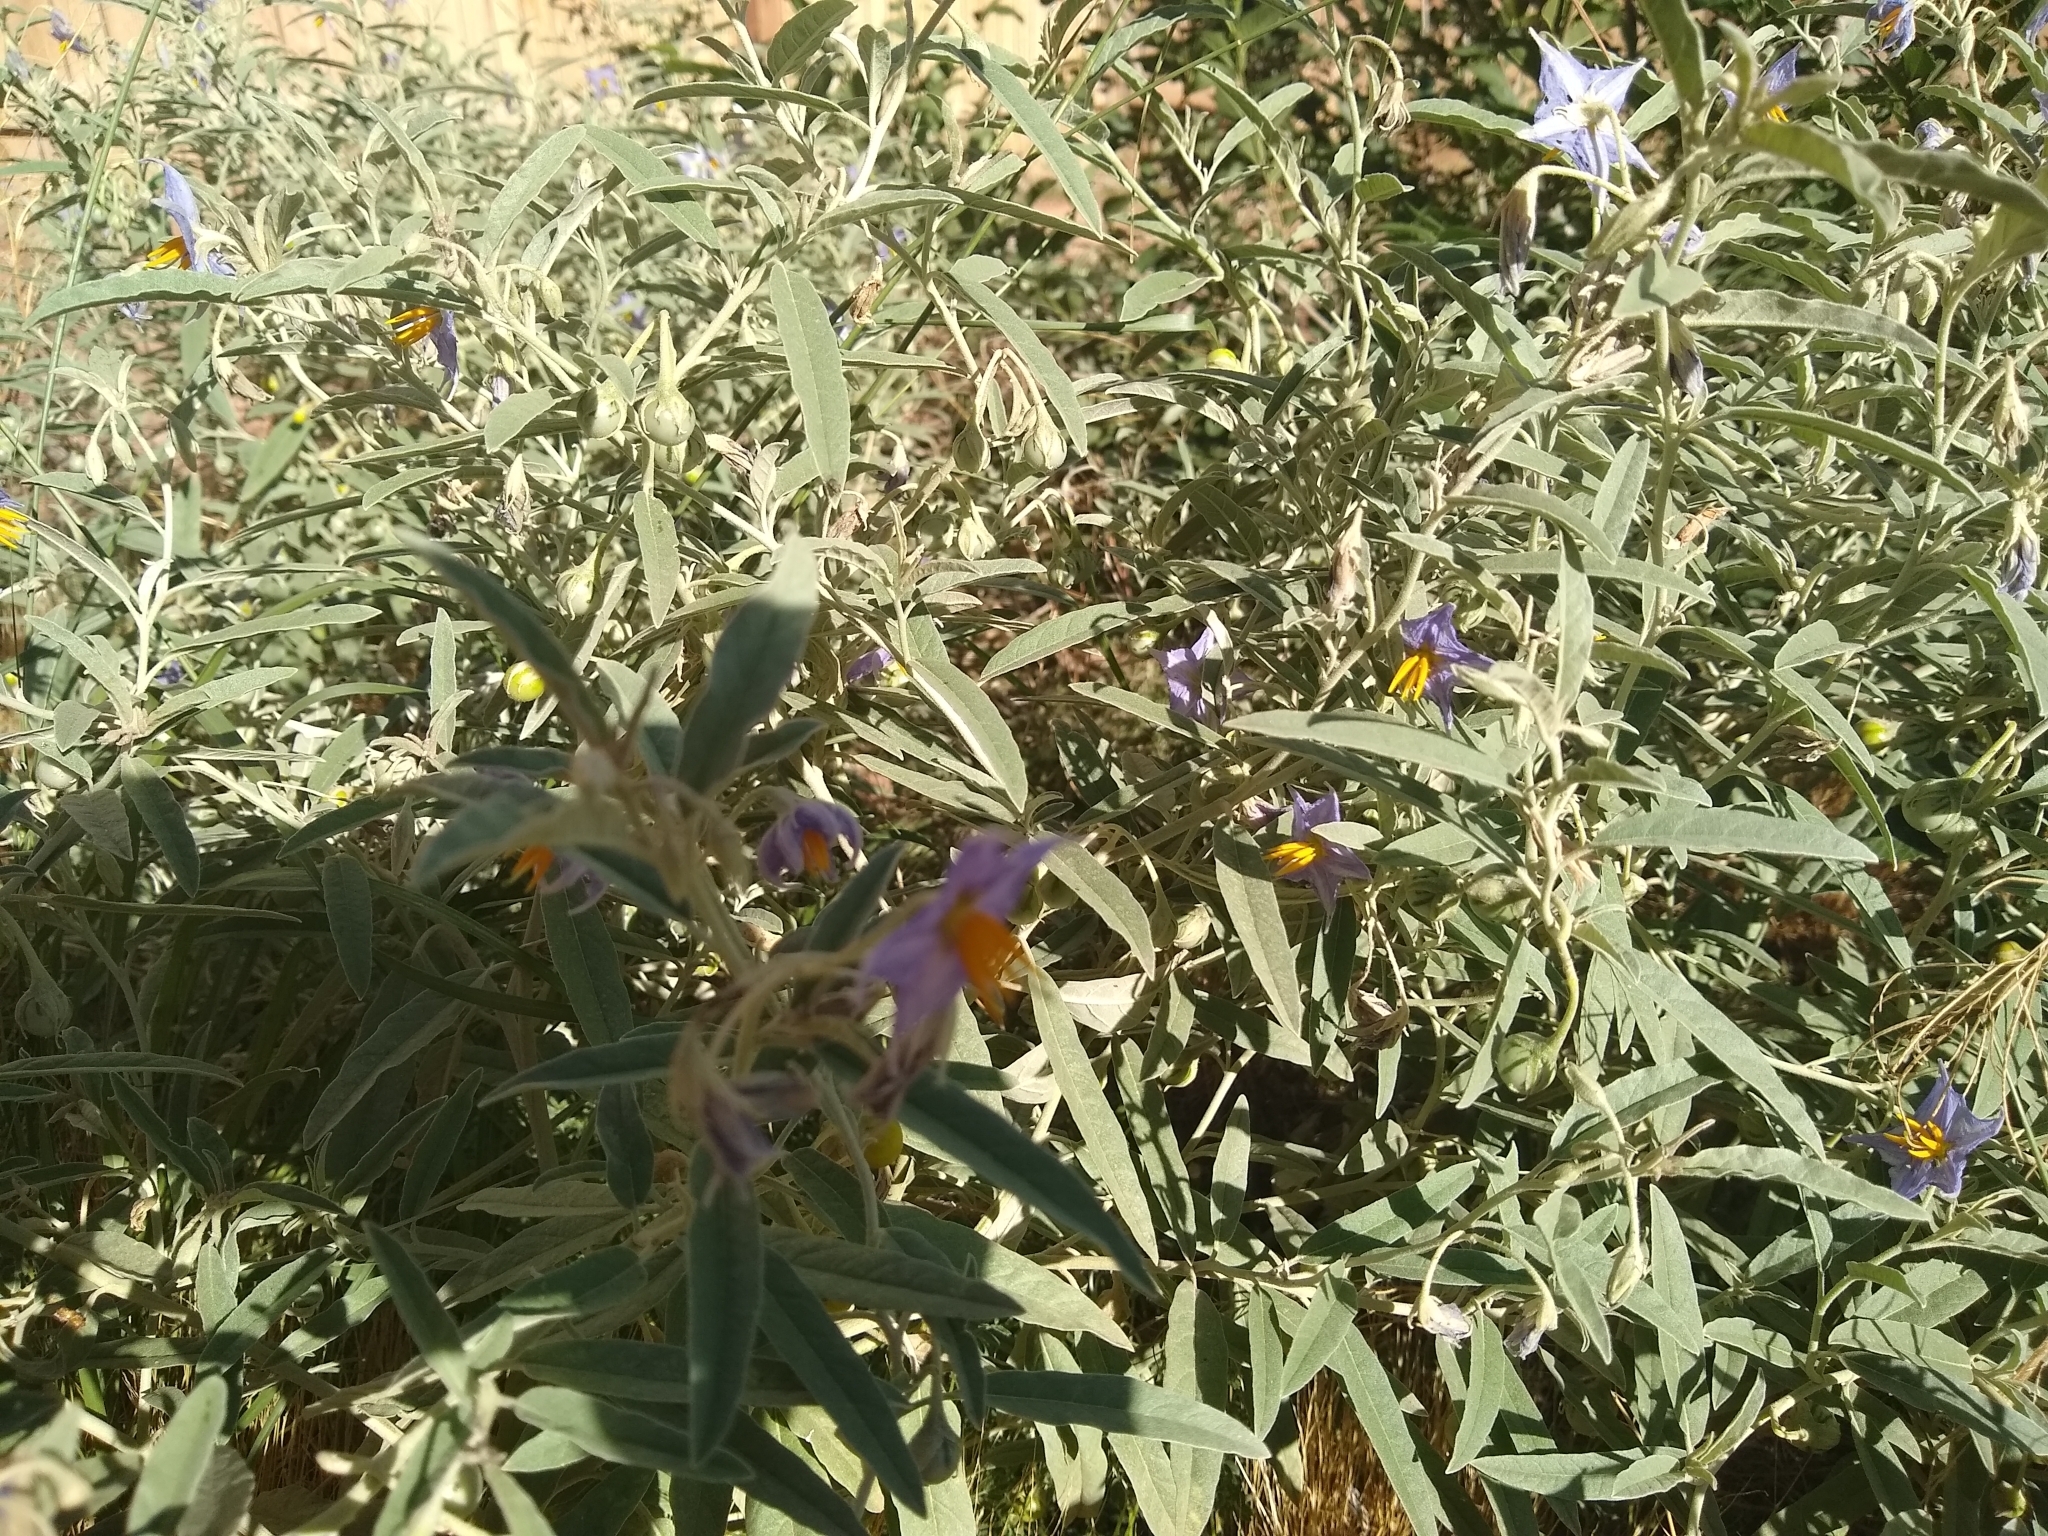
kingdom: Plantae
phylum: Tracheophyta
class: Magnoliopsida
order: Solanales
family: Solanaceae
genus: Solanum
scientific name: Solanum elaeagnifolium
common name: Silverleaf nightshade
